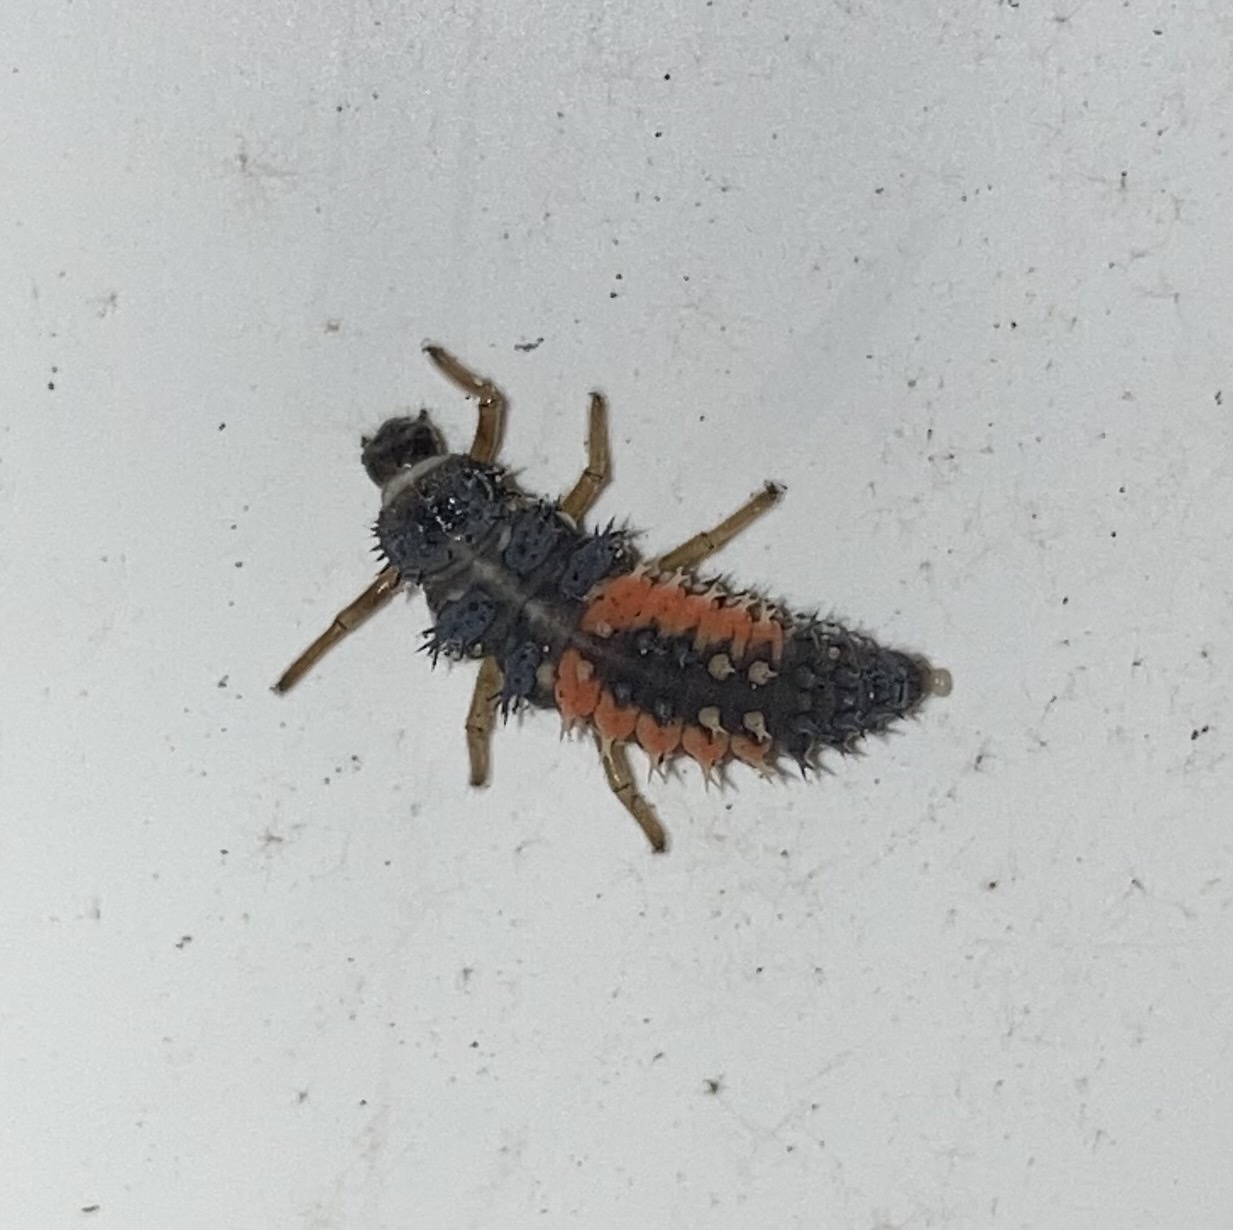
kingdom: Animalia
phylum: Arthropoda
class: Insecta
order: Coleoptera
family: Coccinellidae
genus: Harmonia
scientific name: Harmonia axyridis
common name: Harlequin ladybird
